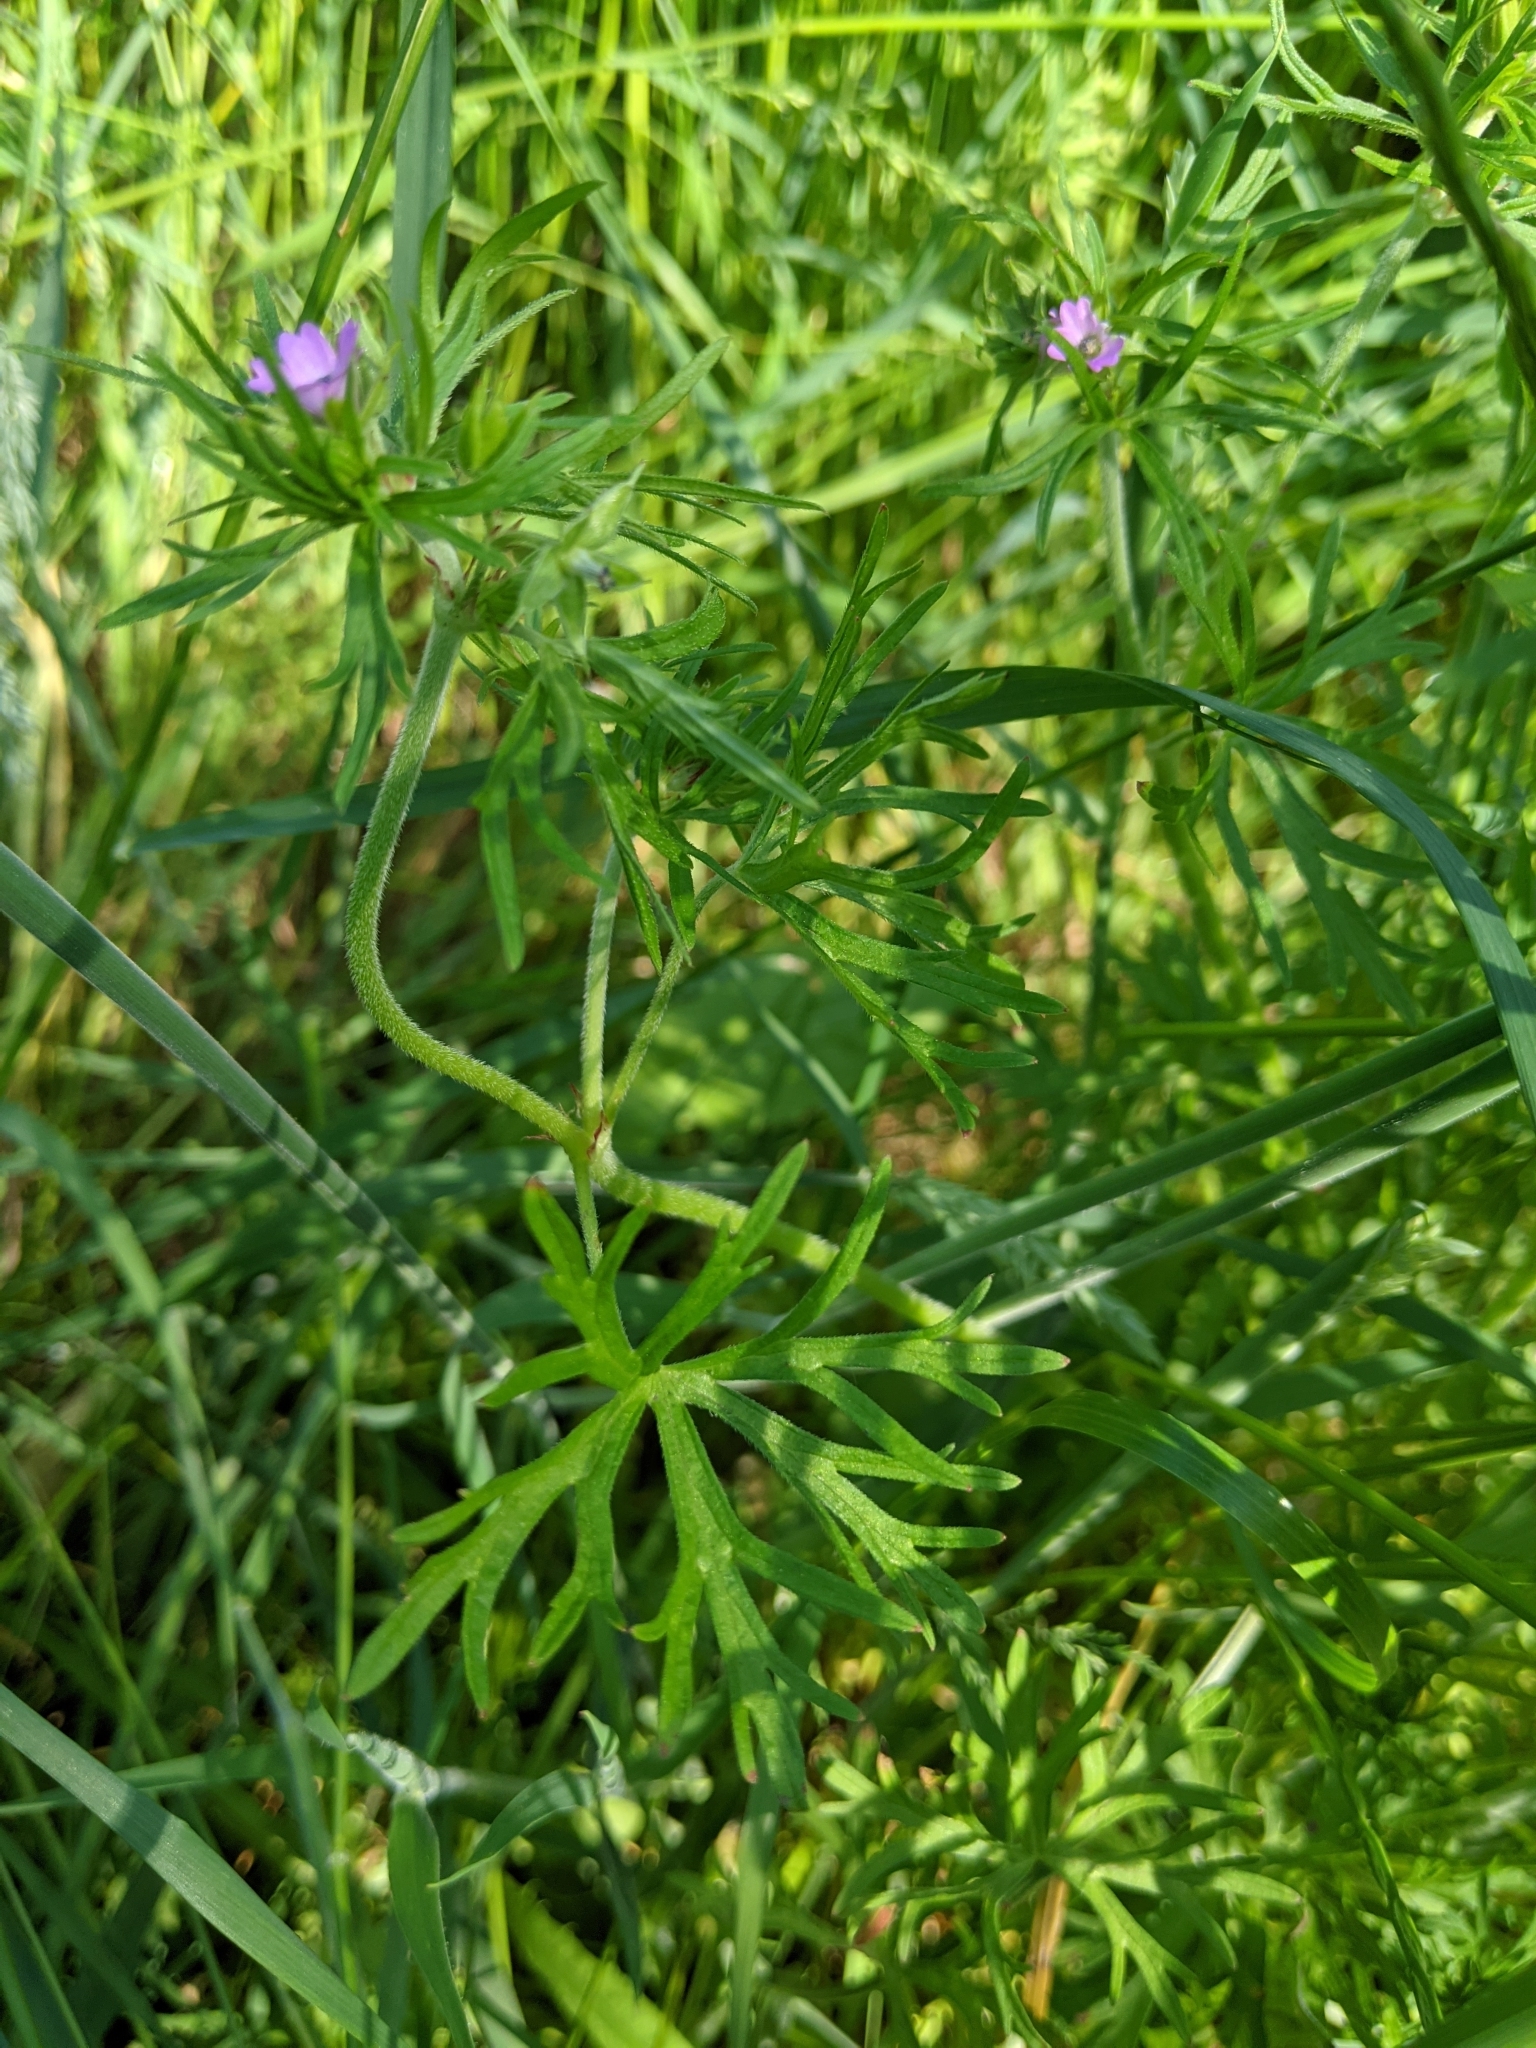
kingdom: Plantae
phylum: Tracheophyta
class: Magnoliopsida
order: Geraniales
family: Geraniaceae
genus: Geranium
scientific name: Geranium dissectum
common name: Cut-leaved crane's-bill
